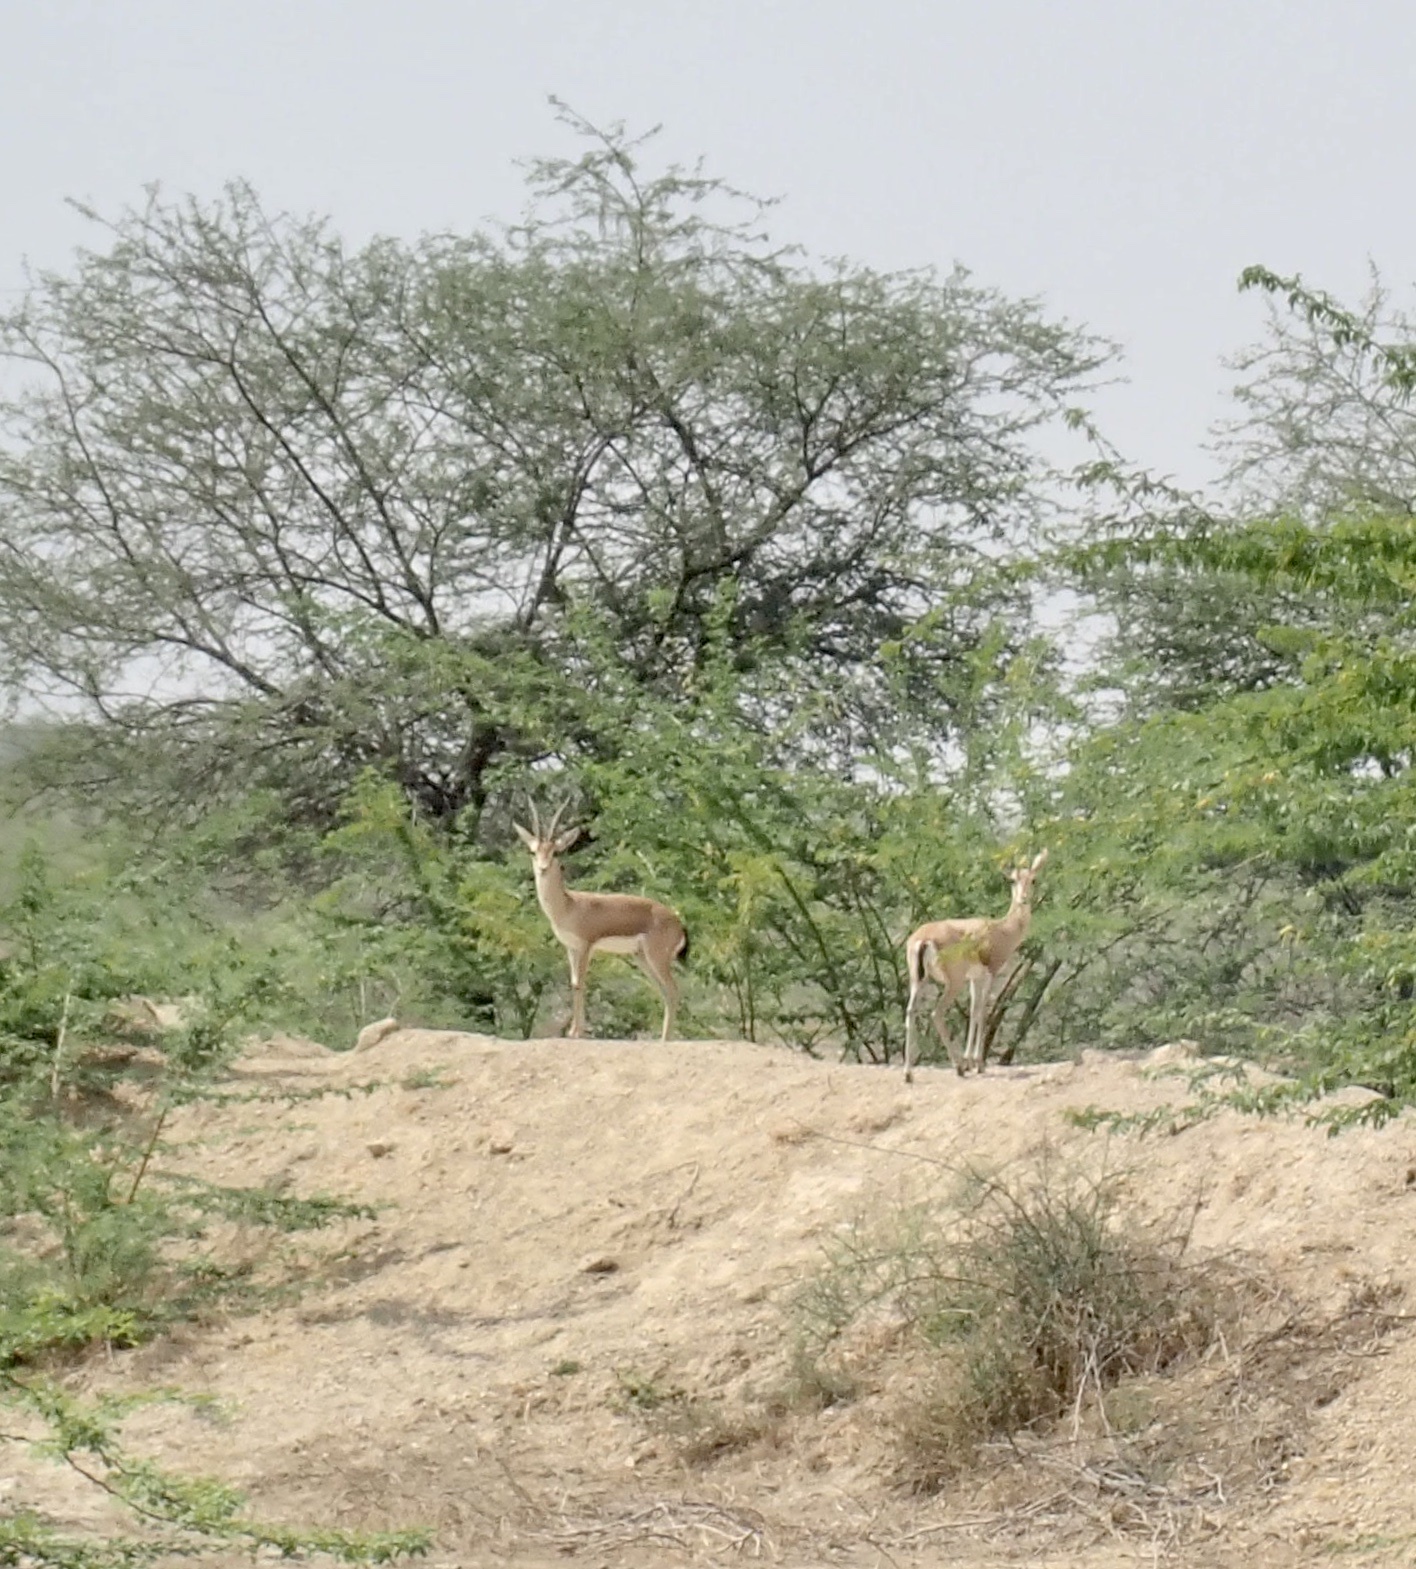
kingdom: Animalia
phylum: Chordata
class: Mammalia
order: Artiodactyla
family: Bovidae
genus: Gazella
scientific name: Gazella bennettii
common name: Indian gazelle
